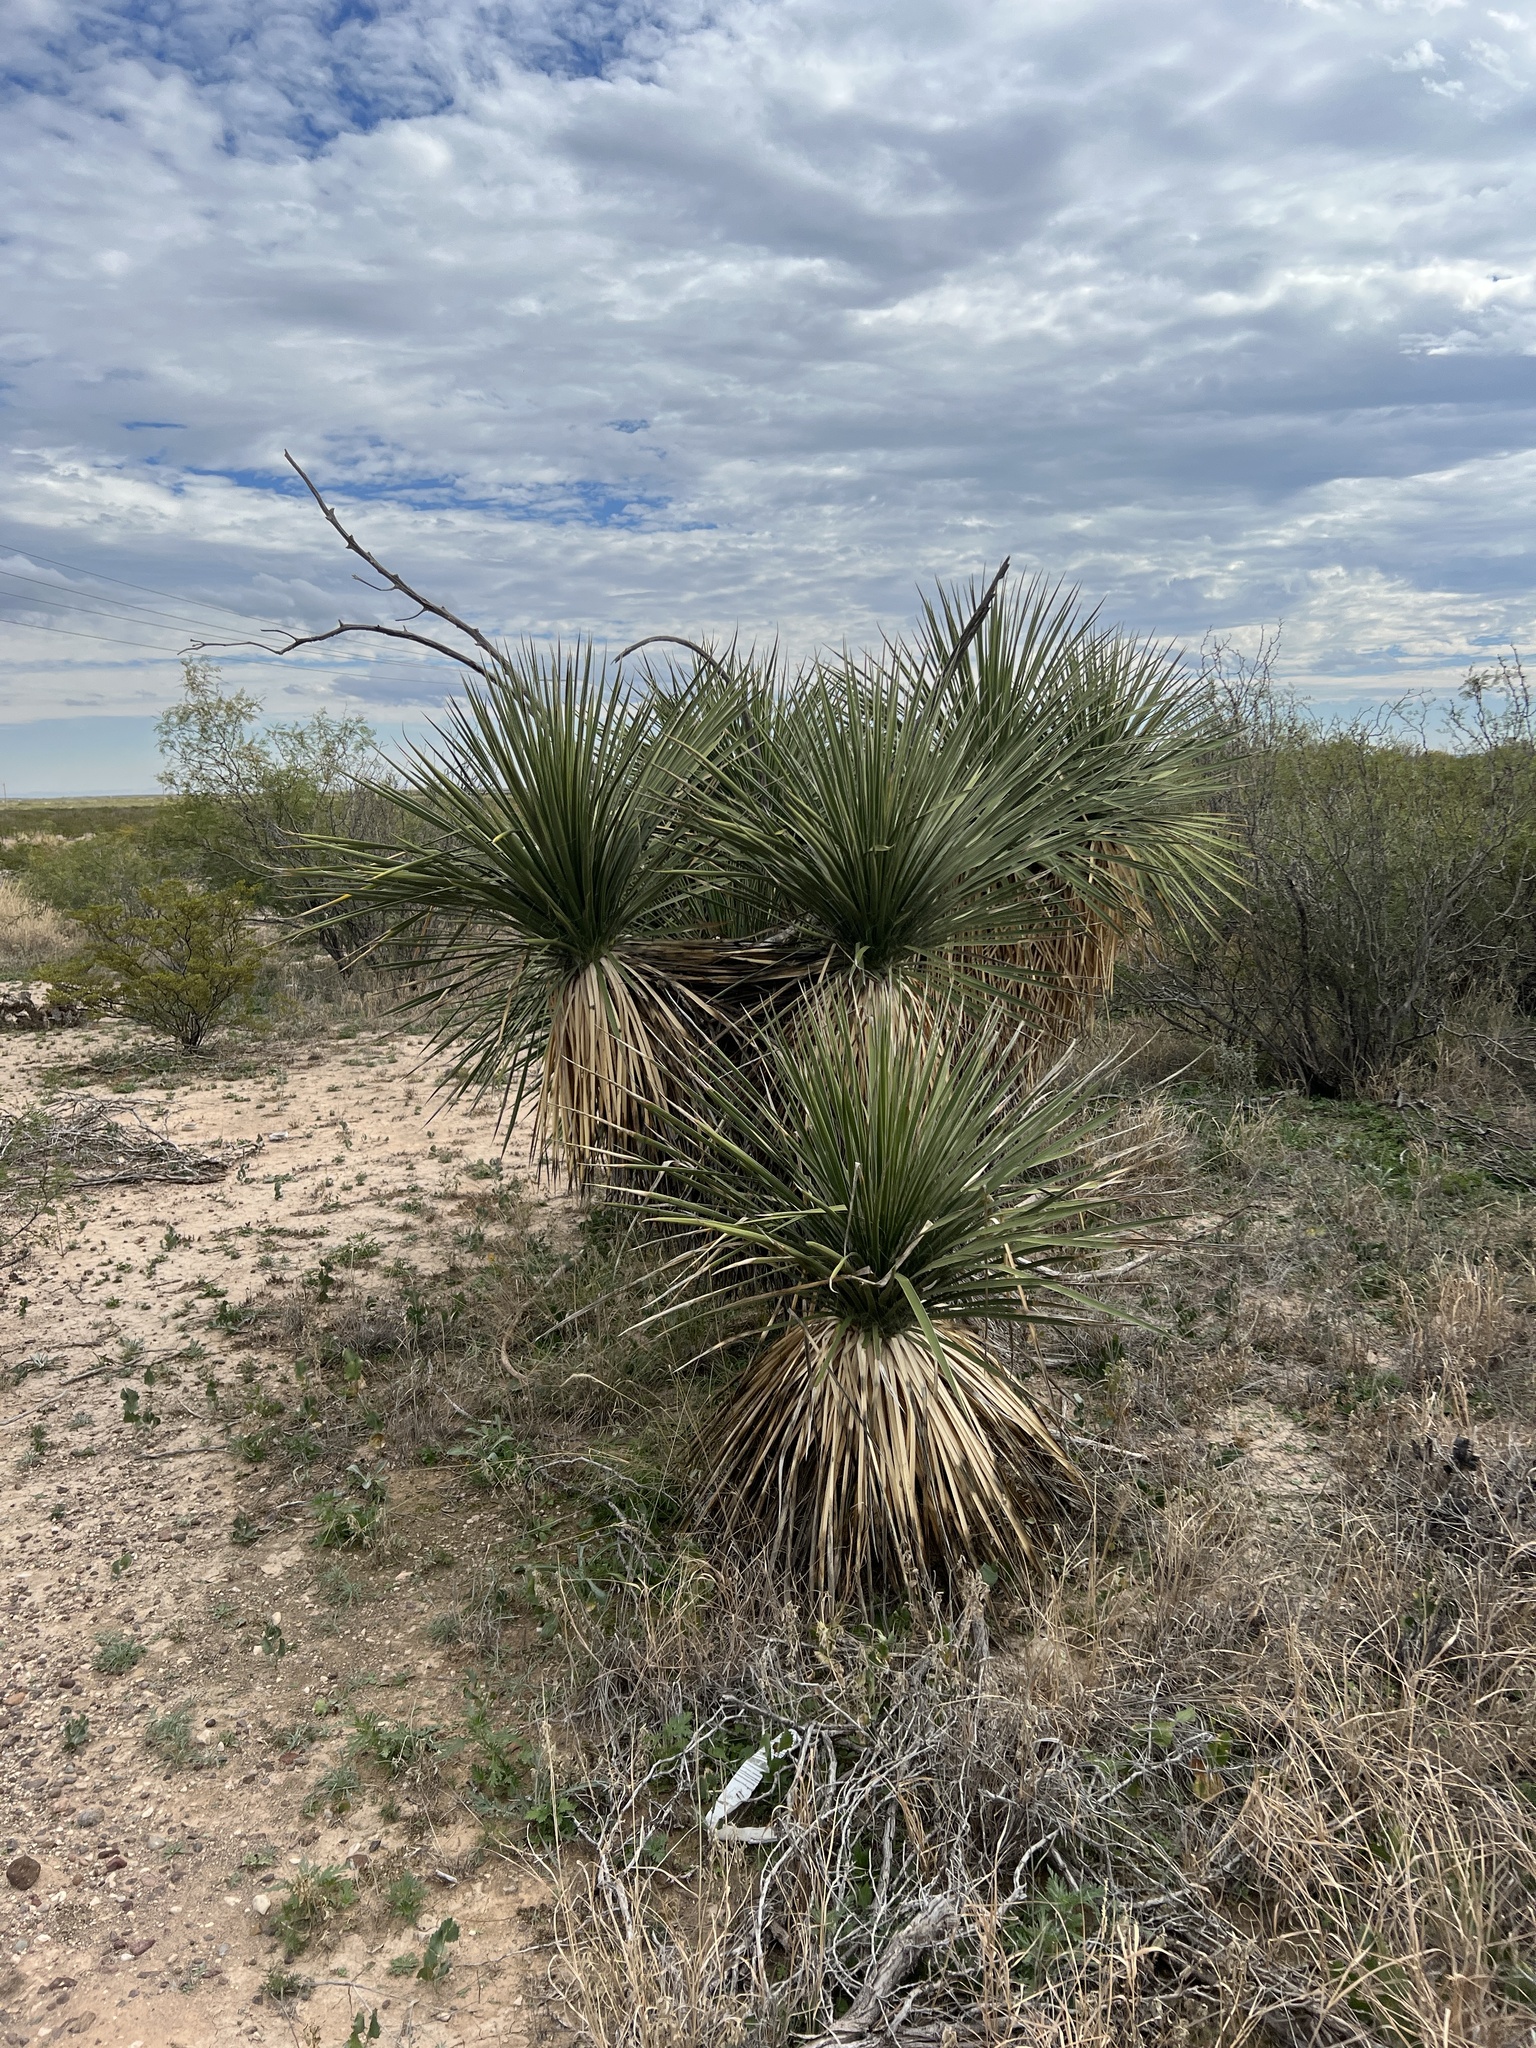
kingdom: Plantae
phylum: Tracheophyta
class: Liliopsida
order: Asparagales
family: Asparagaceae
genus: Yucca
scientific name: Yucca elata
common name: Palmella
